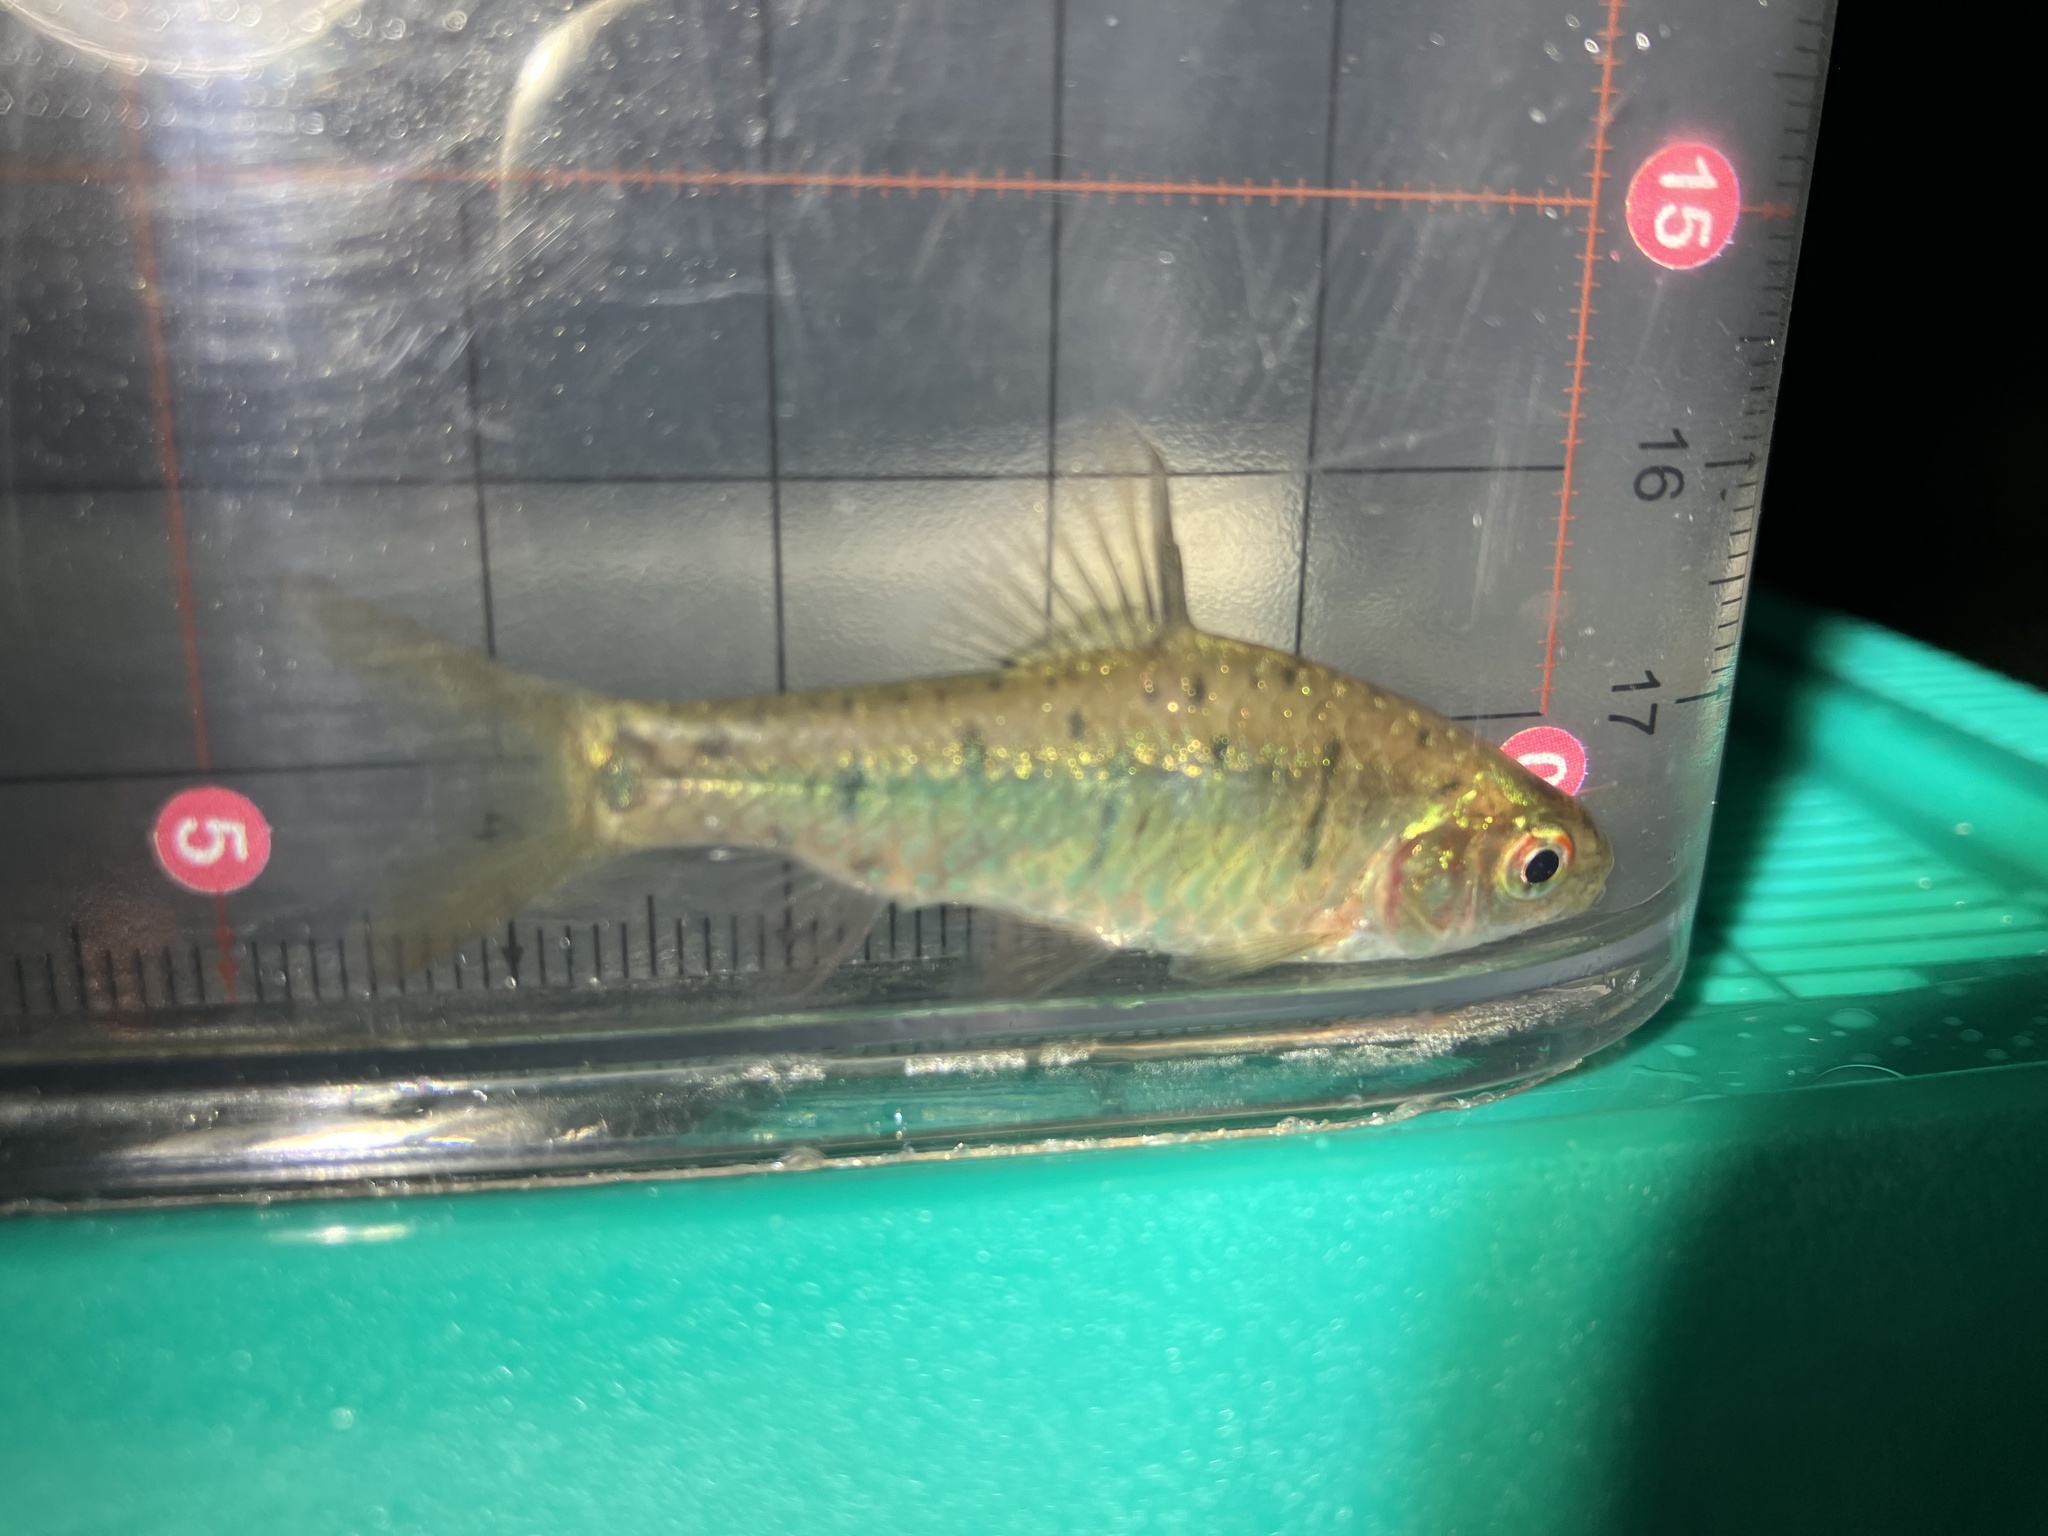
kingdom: Animalia
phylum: Chordata
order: Cypriniformes
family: Cyprinidae
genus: Barbodes
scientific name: Barbodes semifasciolatus
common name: Gold barb
